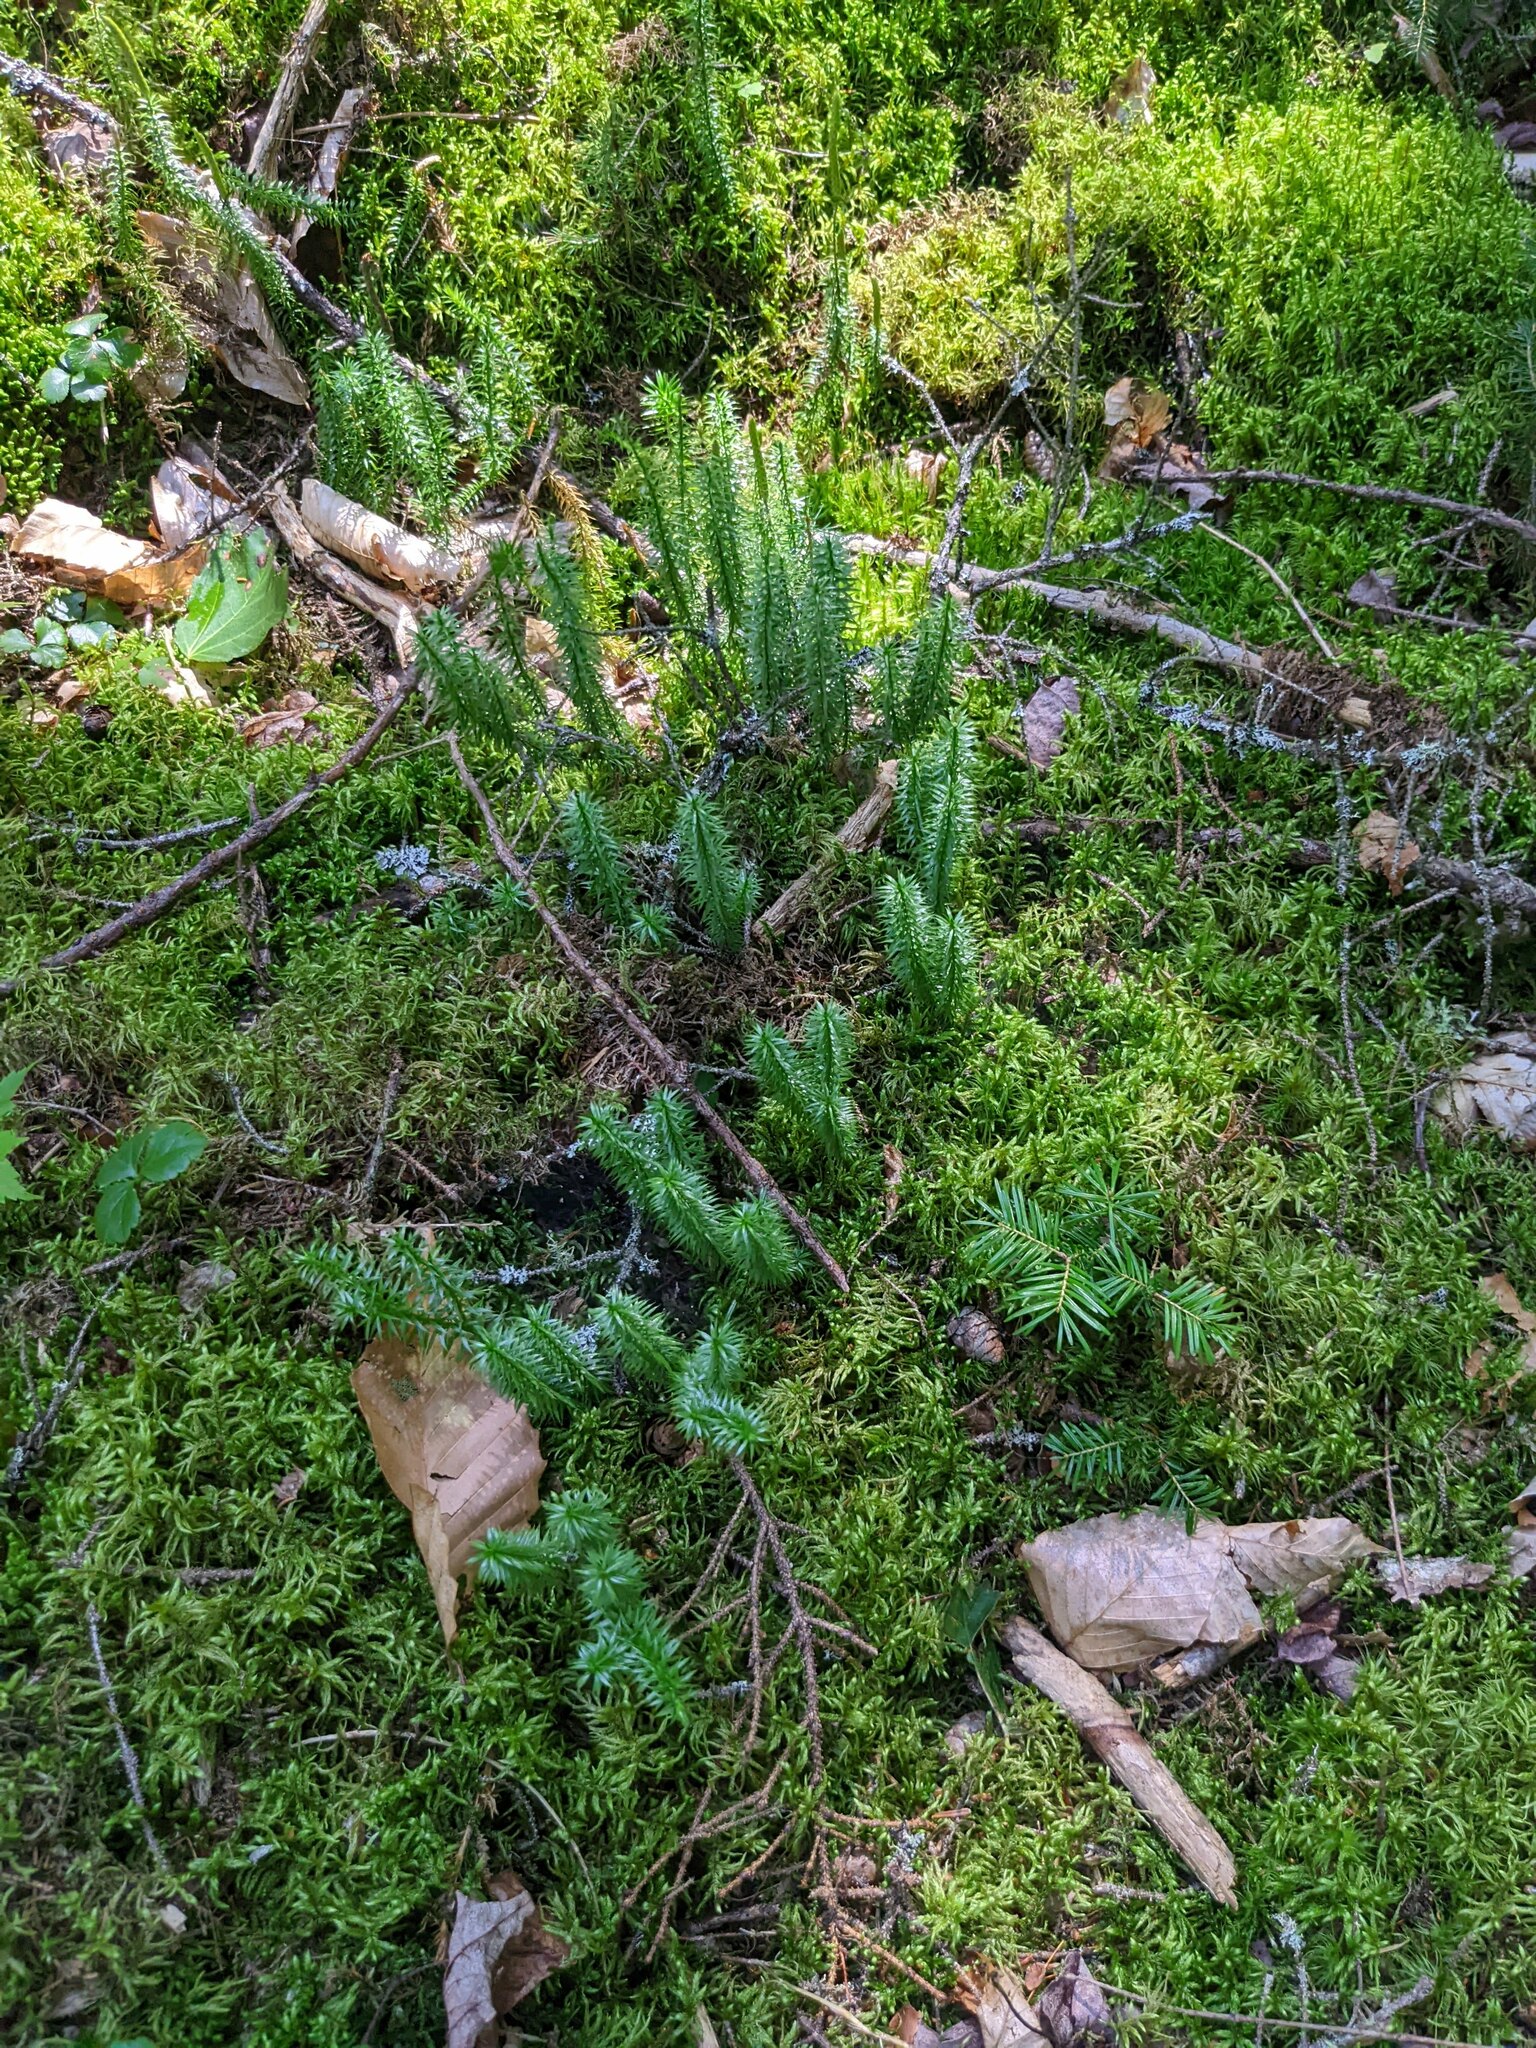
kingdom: Plantae
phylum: Tracheophyta
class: Lycopodiopsida
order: Lycopodiales
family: Lycopodiaceae
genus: Spinulum
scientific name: Spinulum annotinum
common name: Interrupted club-moss
